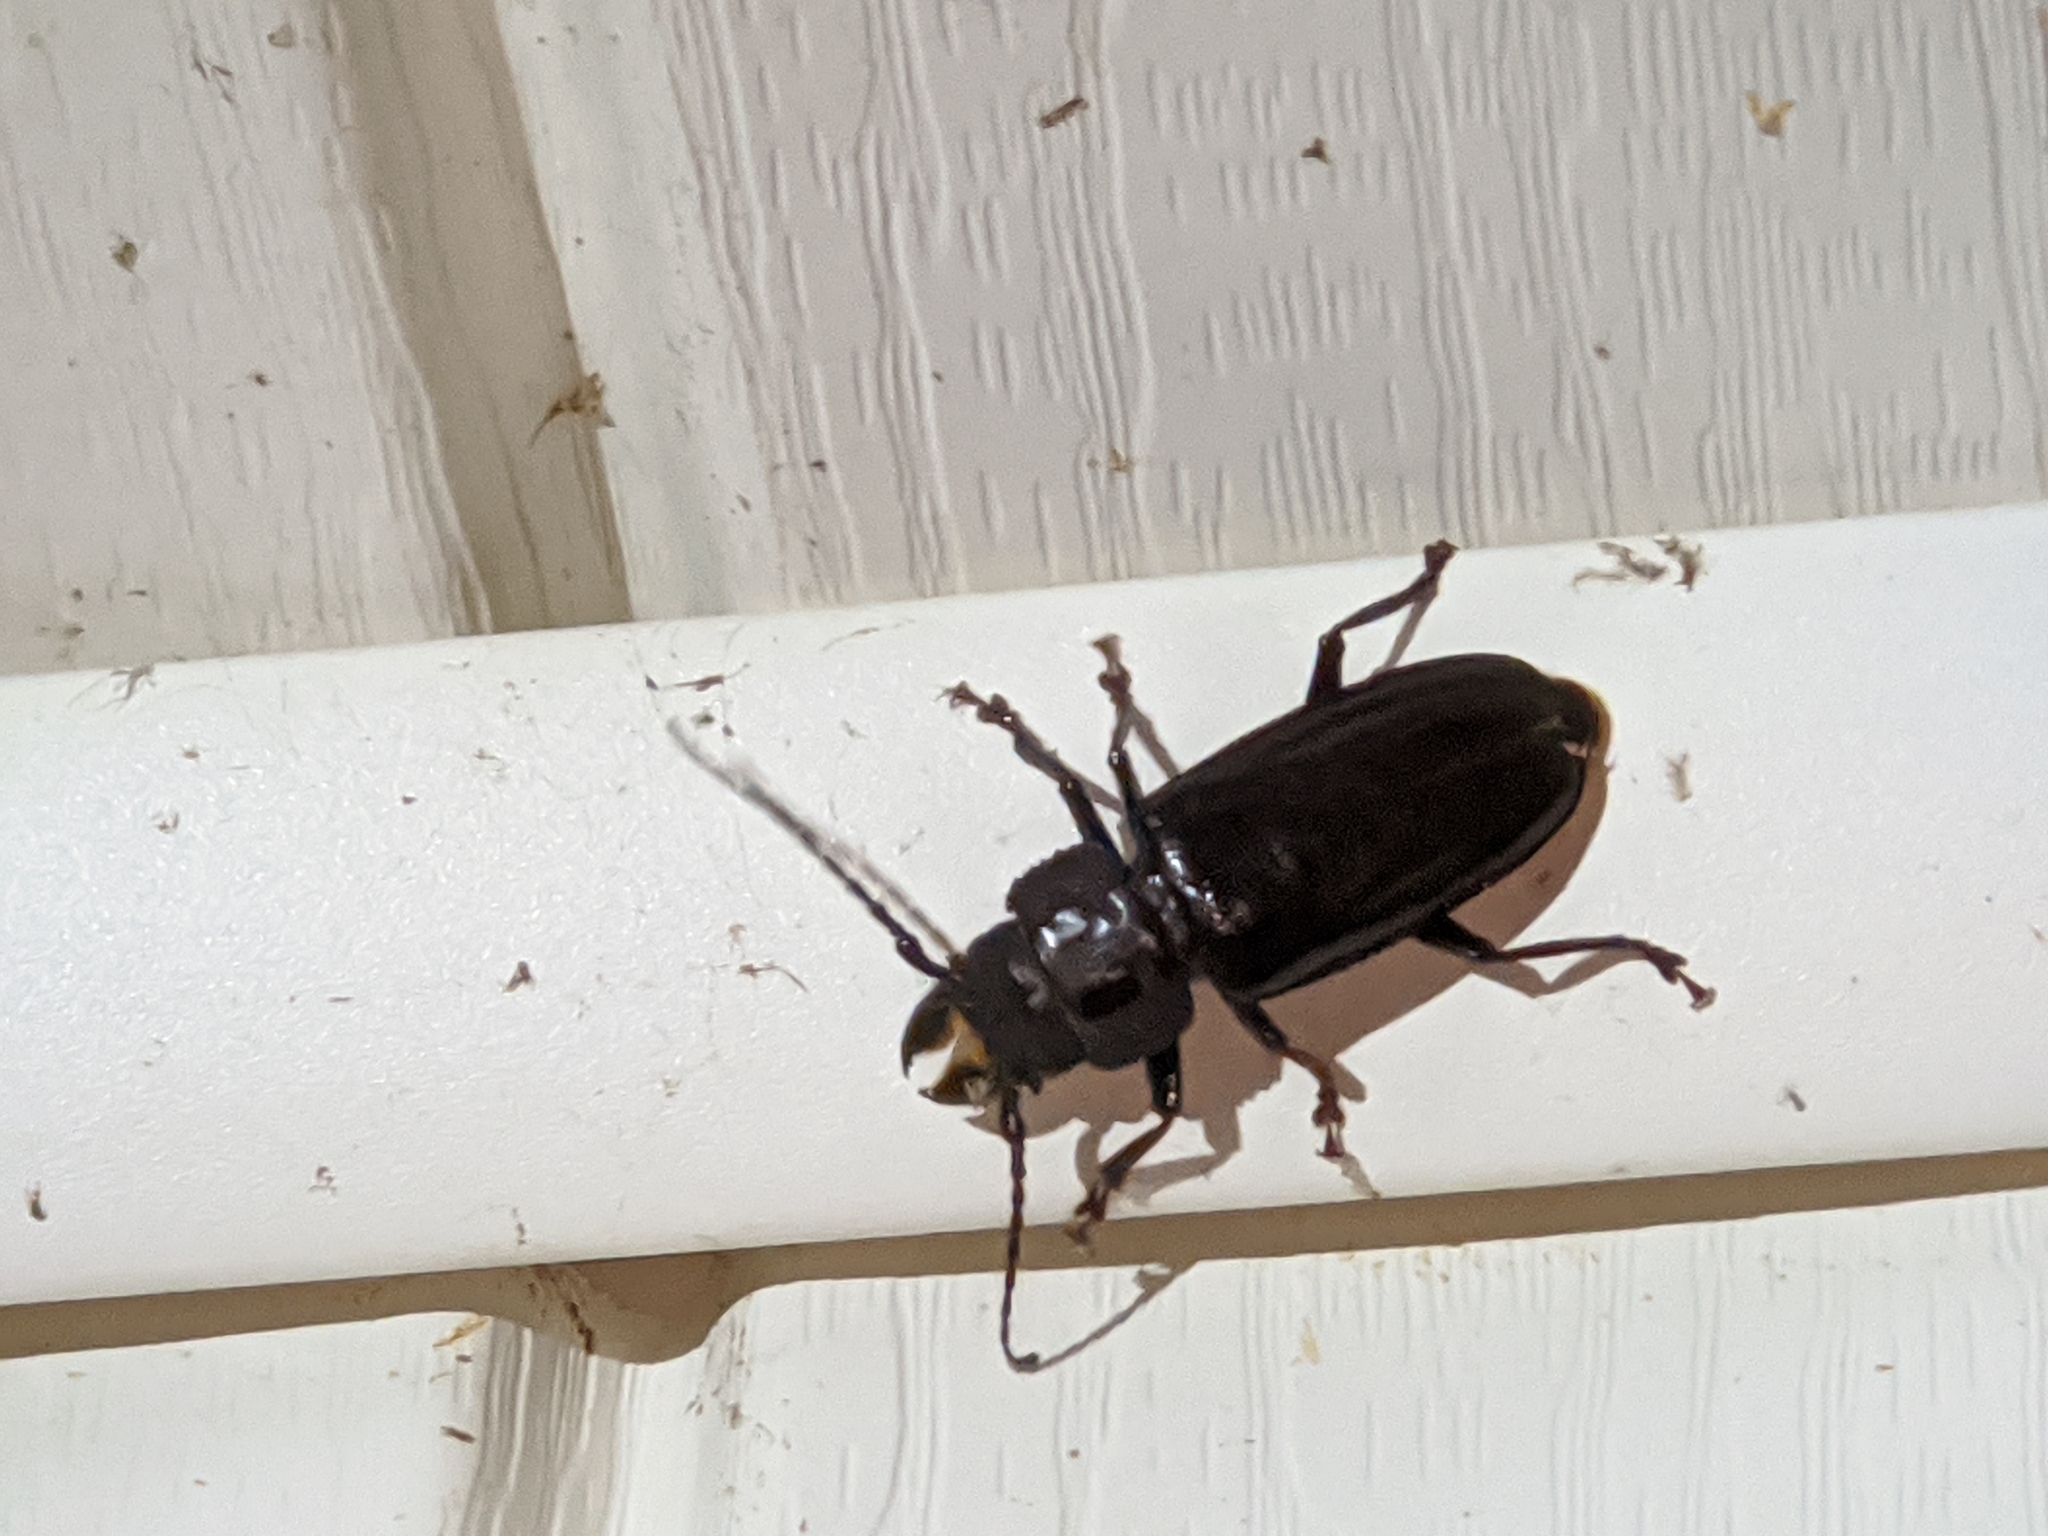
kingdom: Animalia
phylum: Arthropoda
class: Insecta
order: Coleoptera
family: Cerambycidae
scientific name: Cerambycidae
